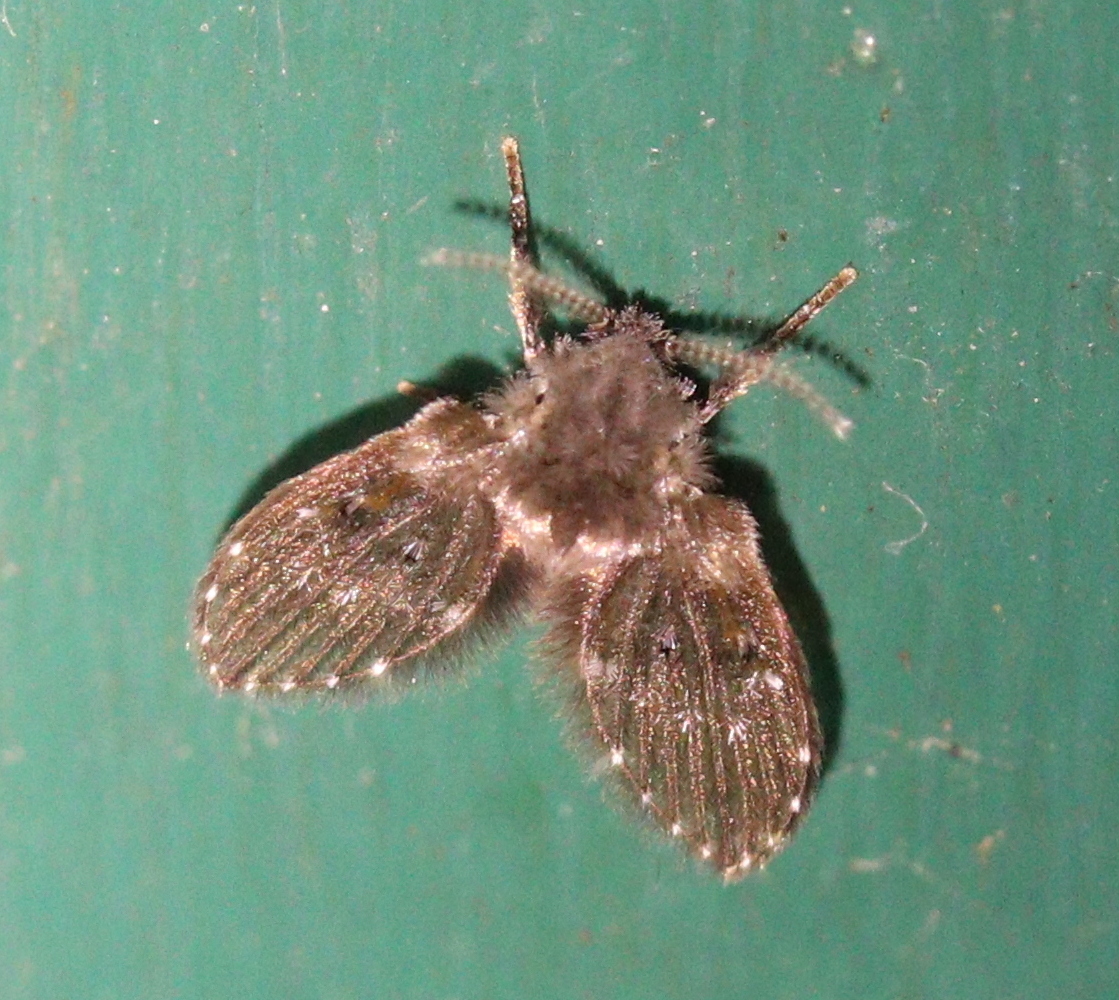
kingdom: Animalia
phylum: Arthropoda
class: Insecta
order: Diptera
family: Psychodidae
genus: Clogmia
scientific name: Clogmia albipunctatus
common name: White-spotted moth fly
